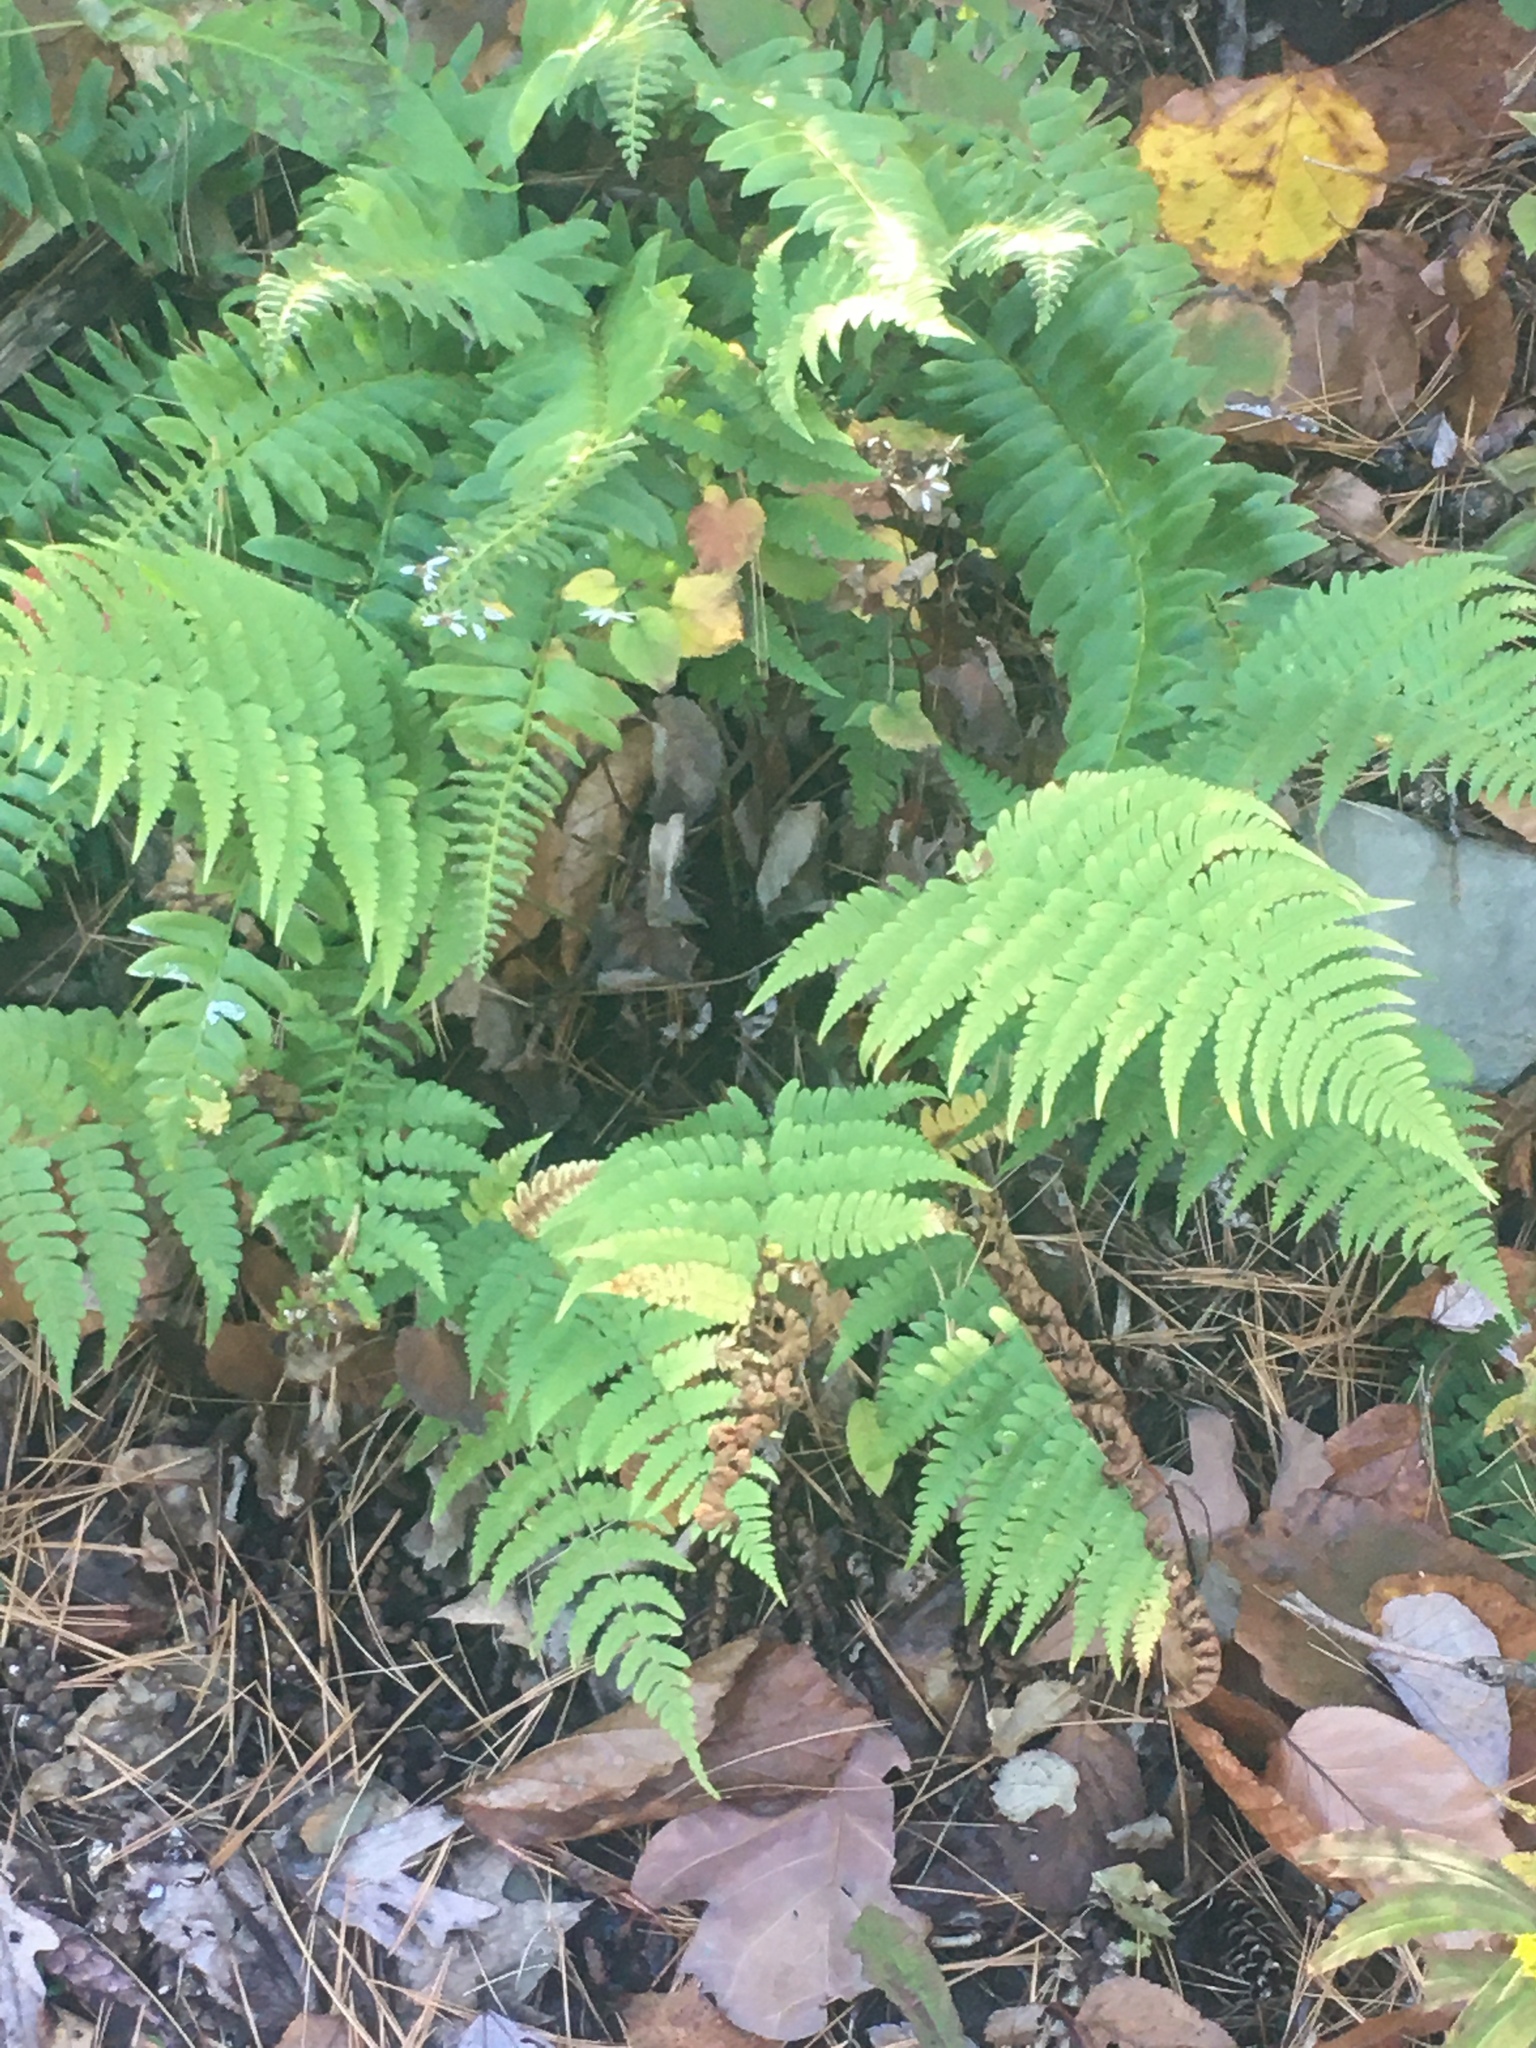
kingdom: Plantae
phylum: Tracheophyta
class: Polypodiopsida
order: Polypodiales
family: Dryopteridaceae
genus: Dryopteris
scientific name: Dryopteris marginalis
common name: Marginal wood fern
